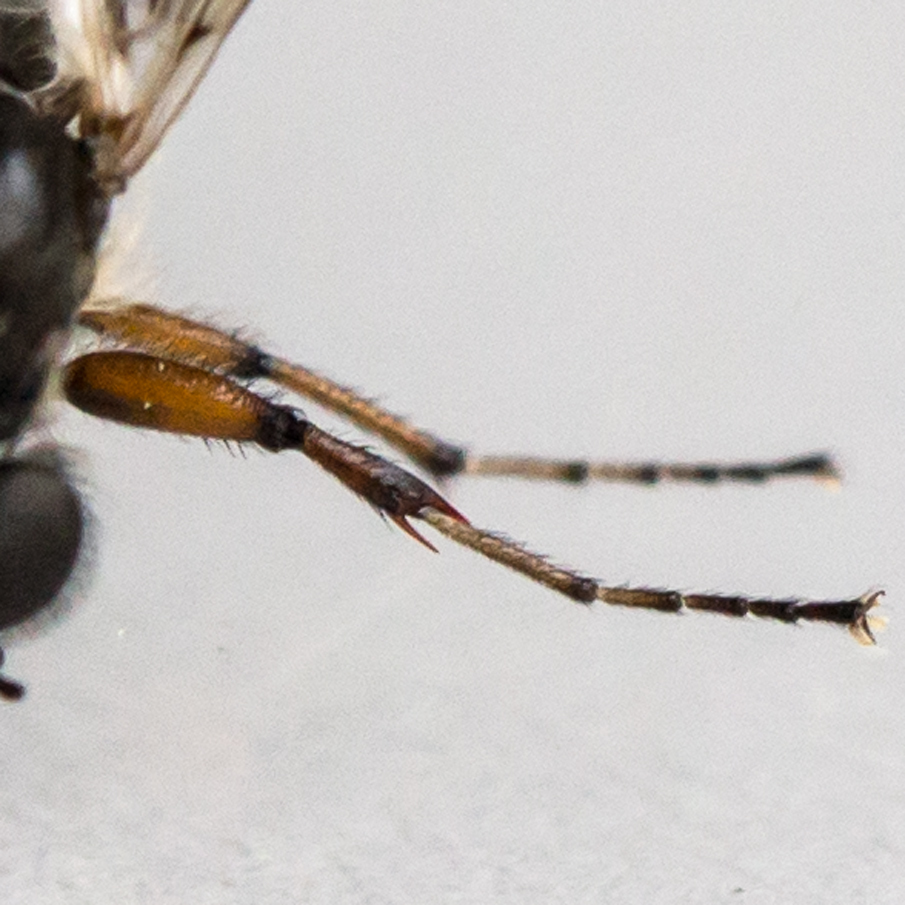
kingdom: Animalia
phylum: Arthropoda
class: Insecta
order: Diptera
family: Bibionidae
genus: Bibio
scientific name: Bibio articulatus
